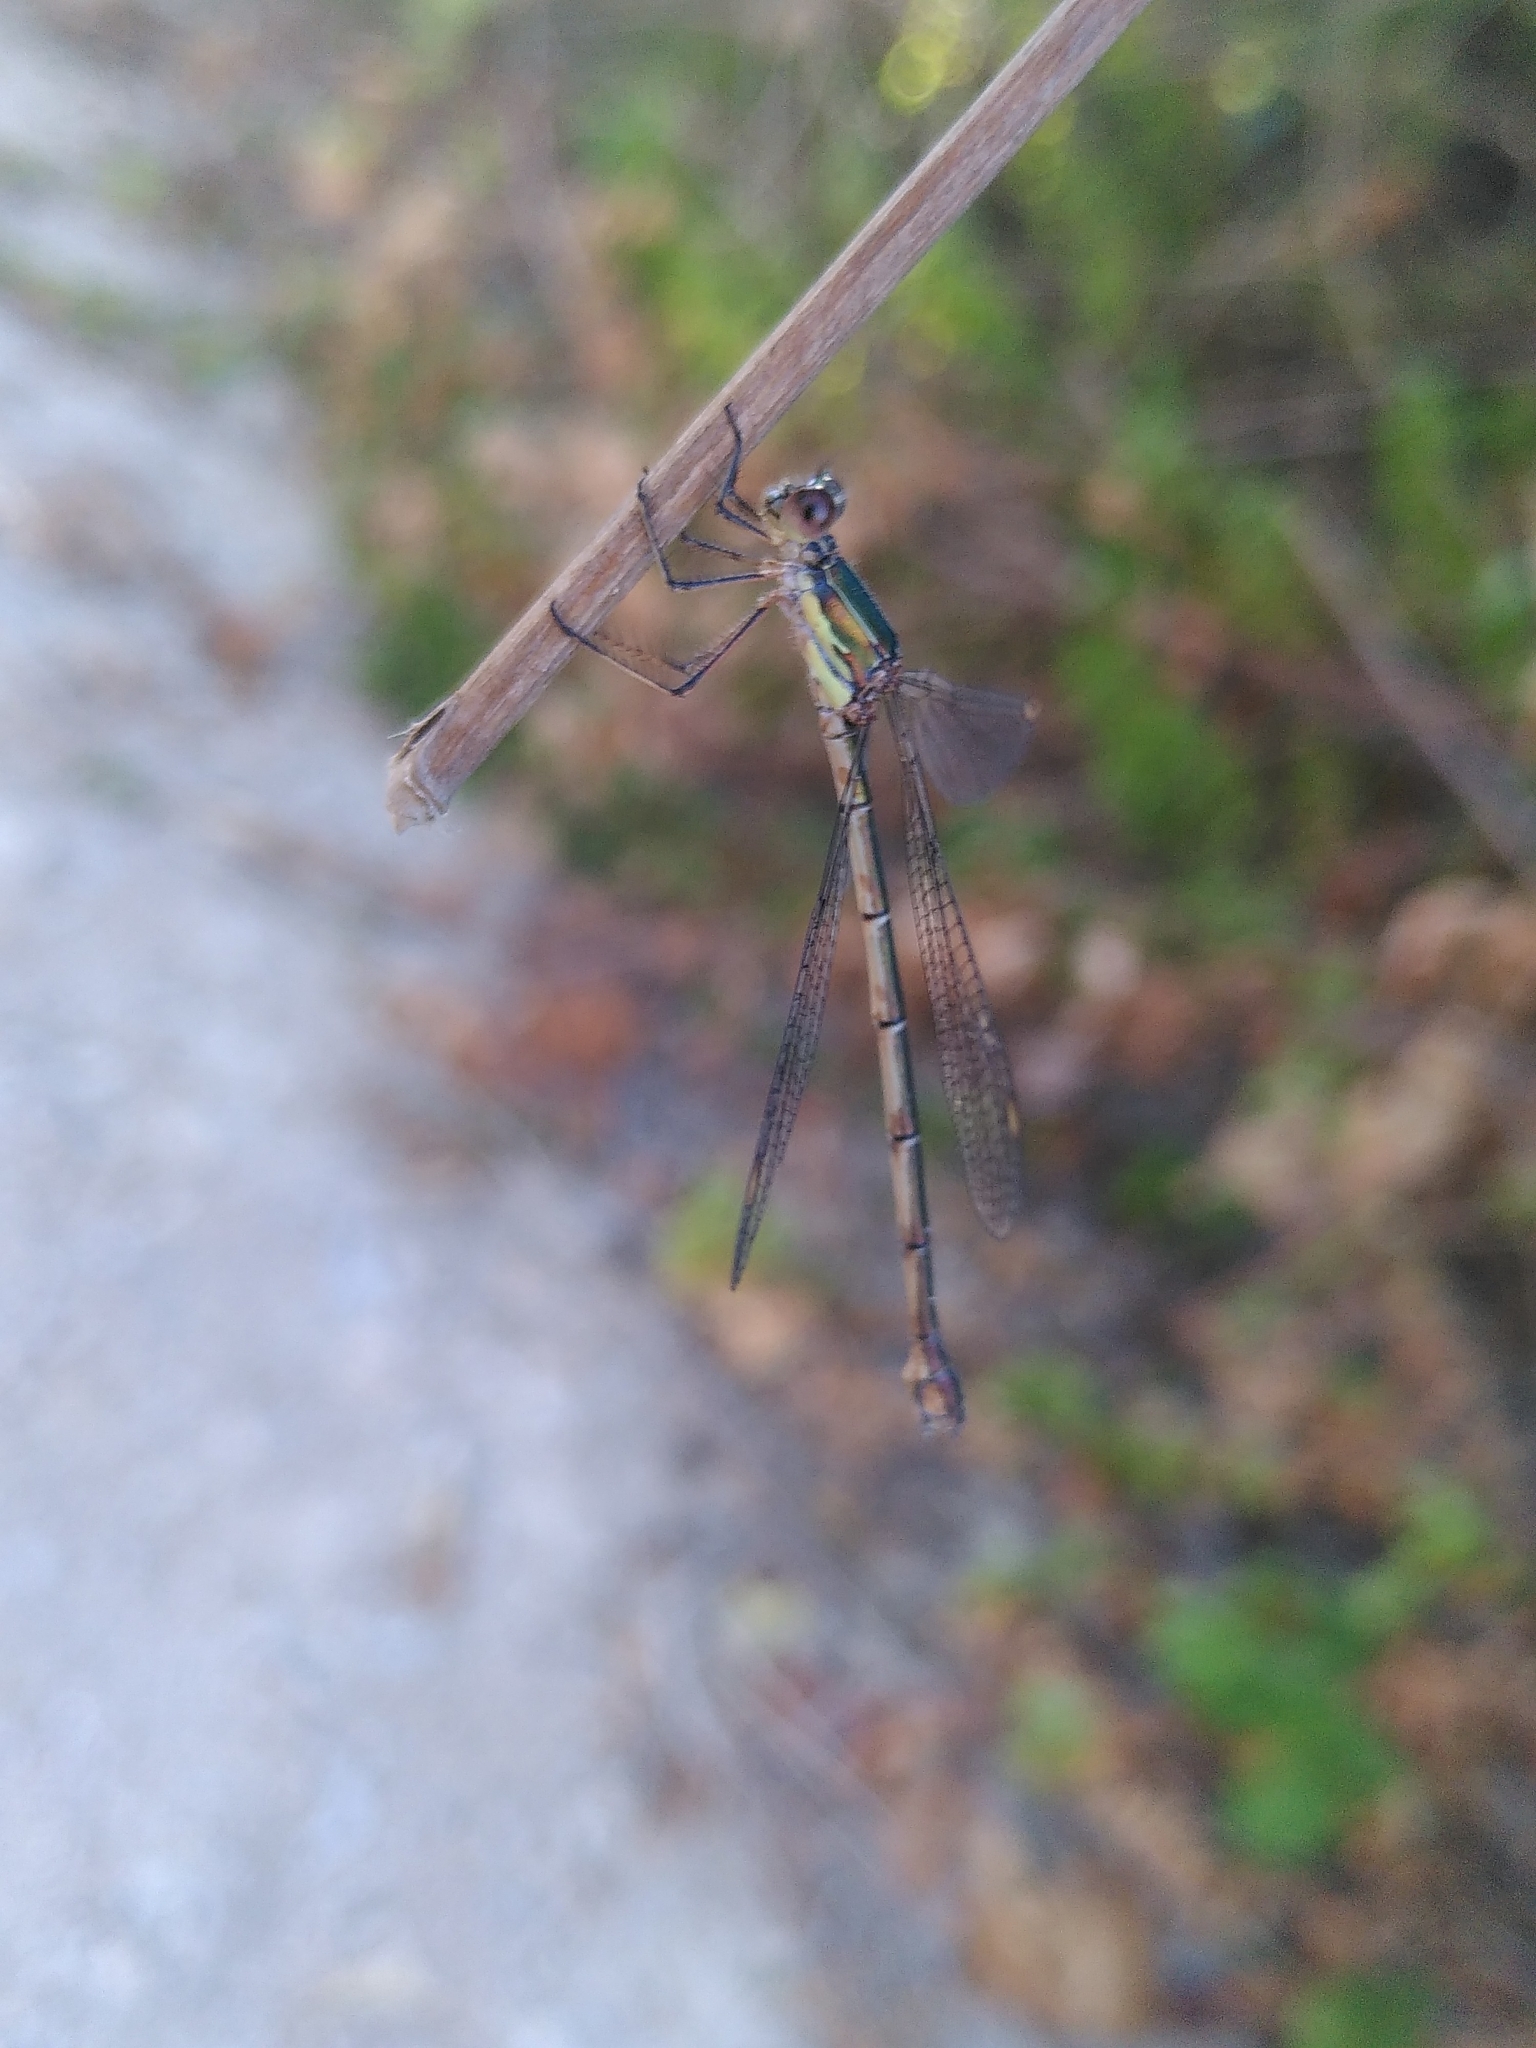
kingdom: Animalia
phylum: Arthropoda
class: Insecta
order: Odonata
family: Lestidae
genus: Chalcolestes
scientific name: Chalcolestes viridis
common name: Green emerald damselfly
